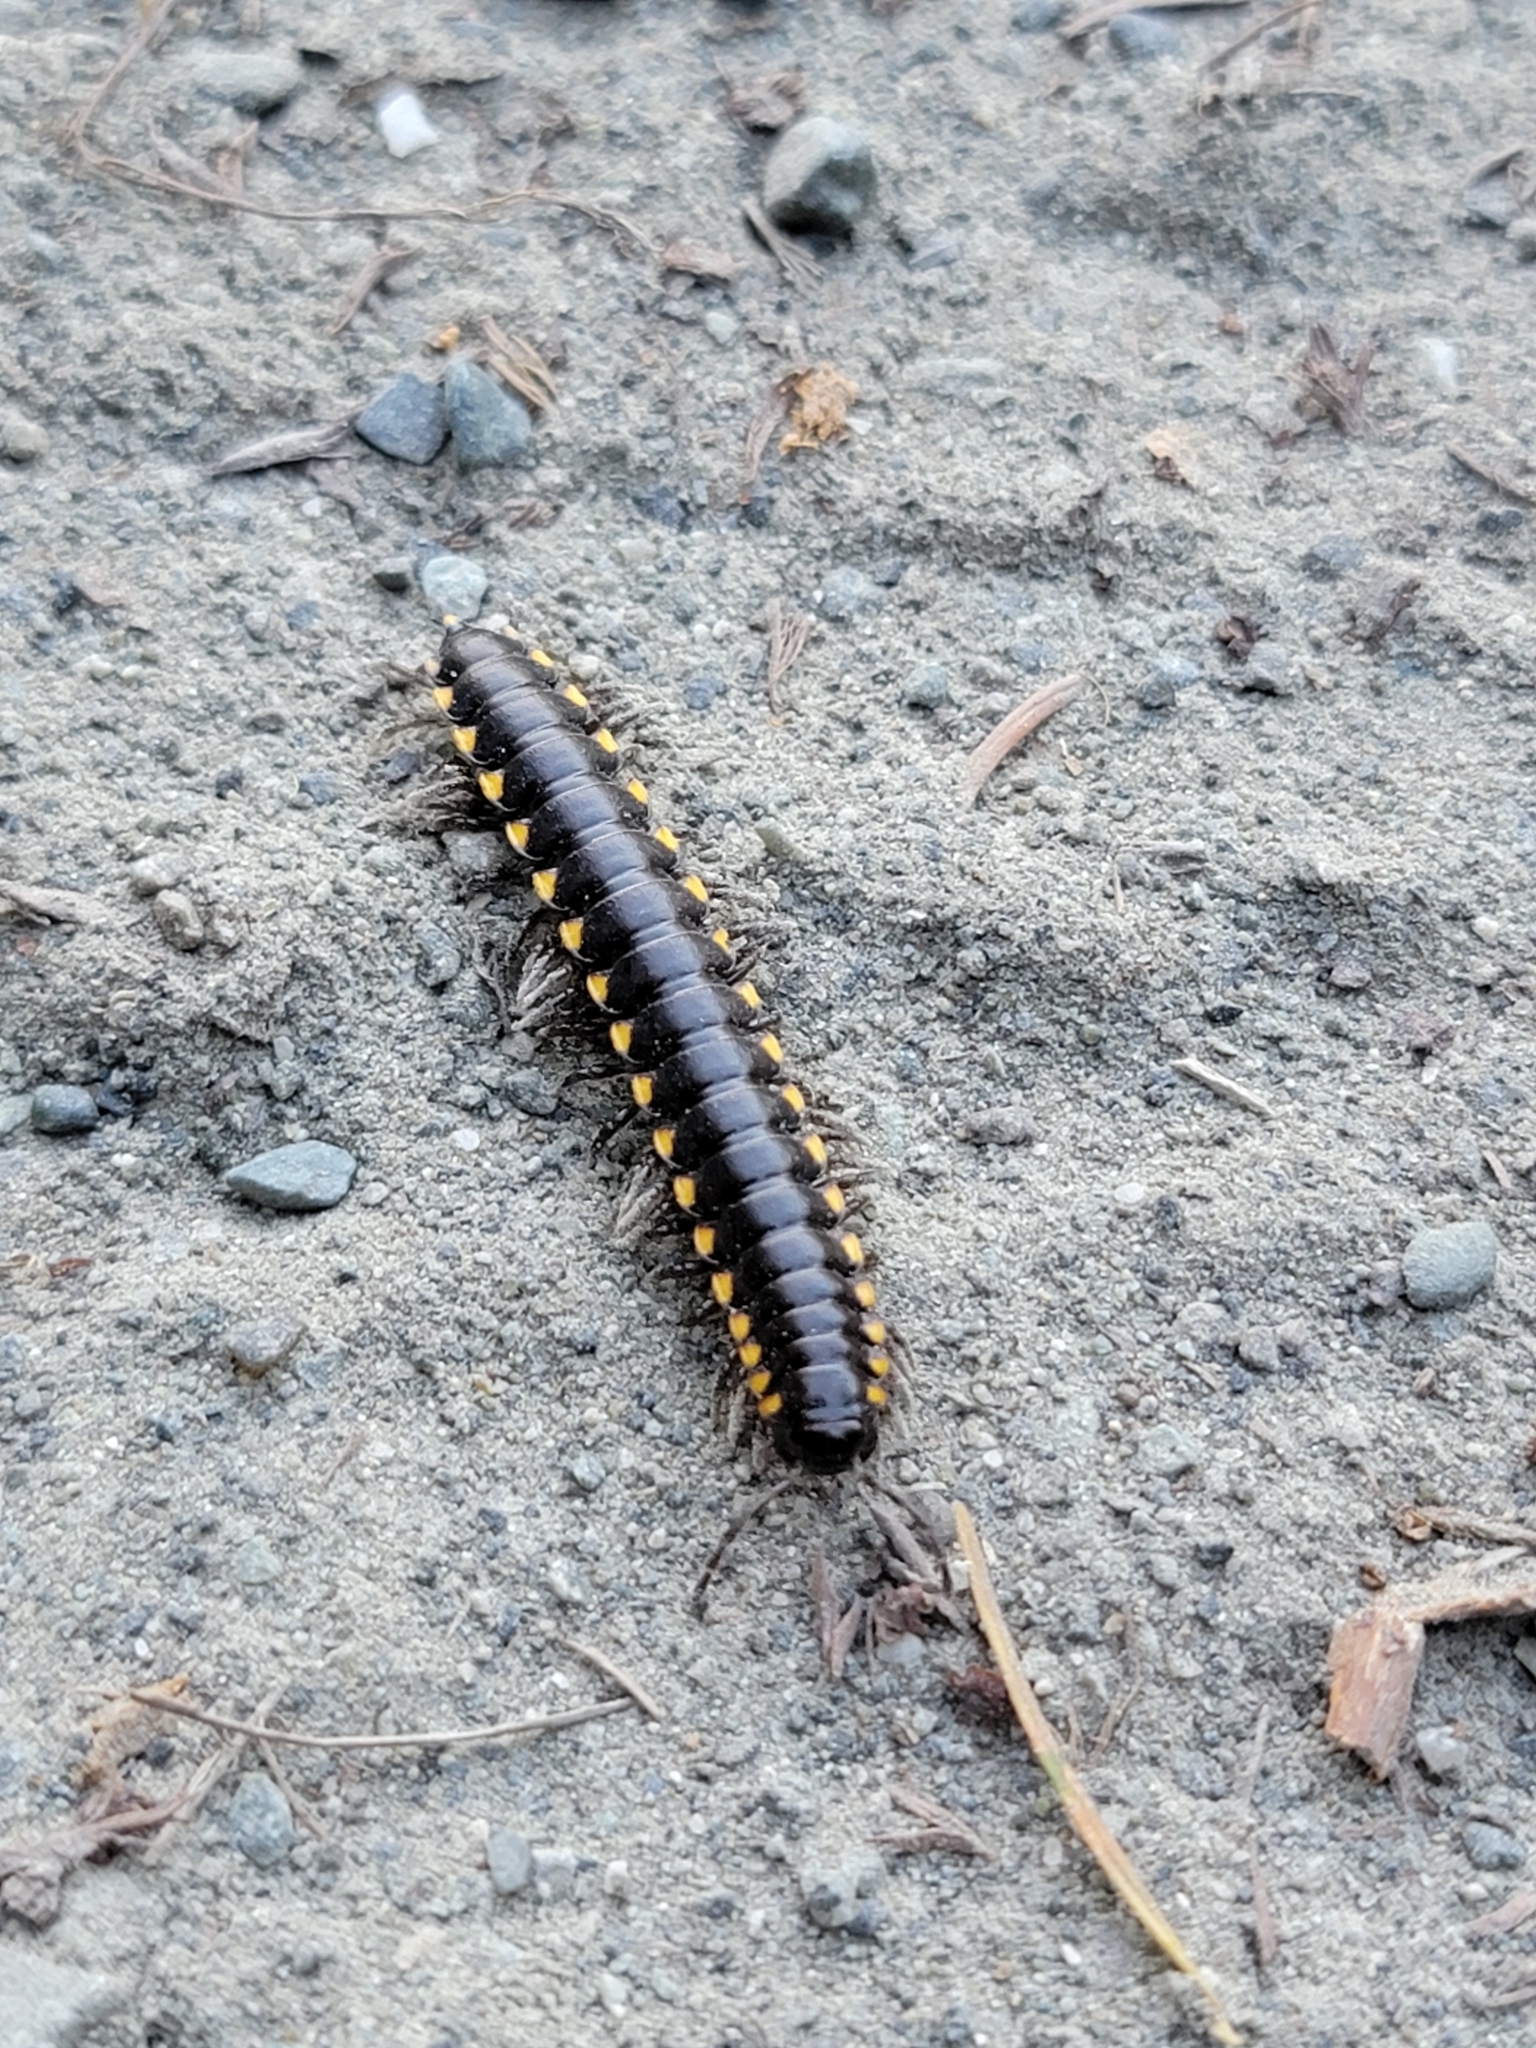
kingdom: Animalia
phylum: Arthropoda
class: Diplopoda
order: Polydesmida
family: Xystodesmidae
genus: Harpaphe
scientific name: Harpaphe haydeniana
